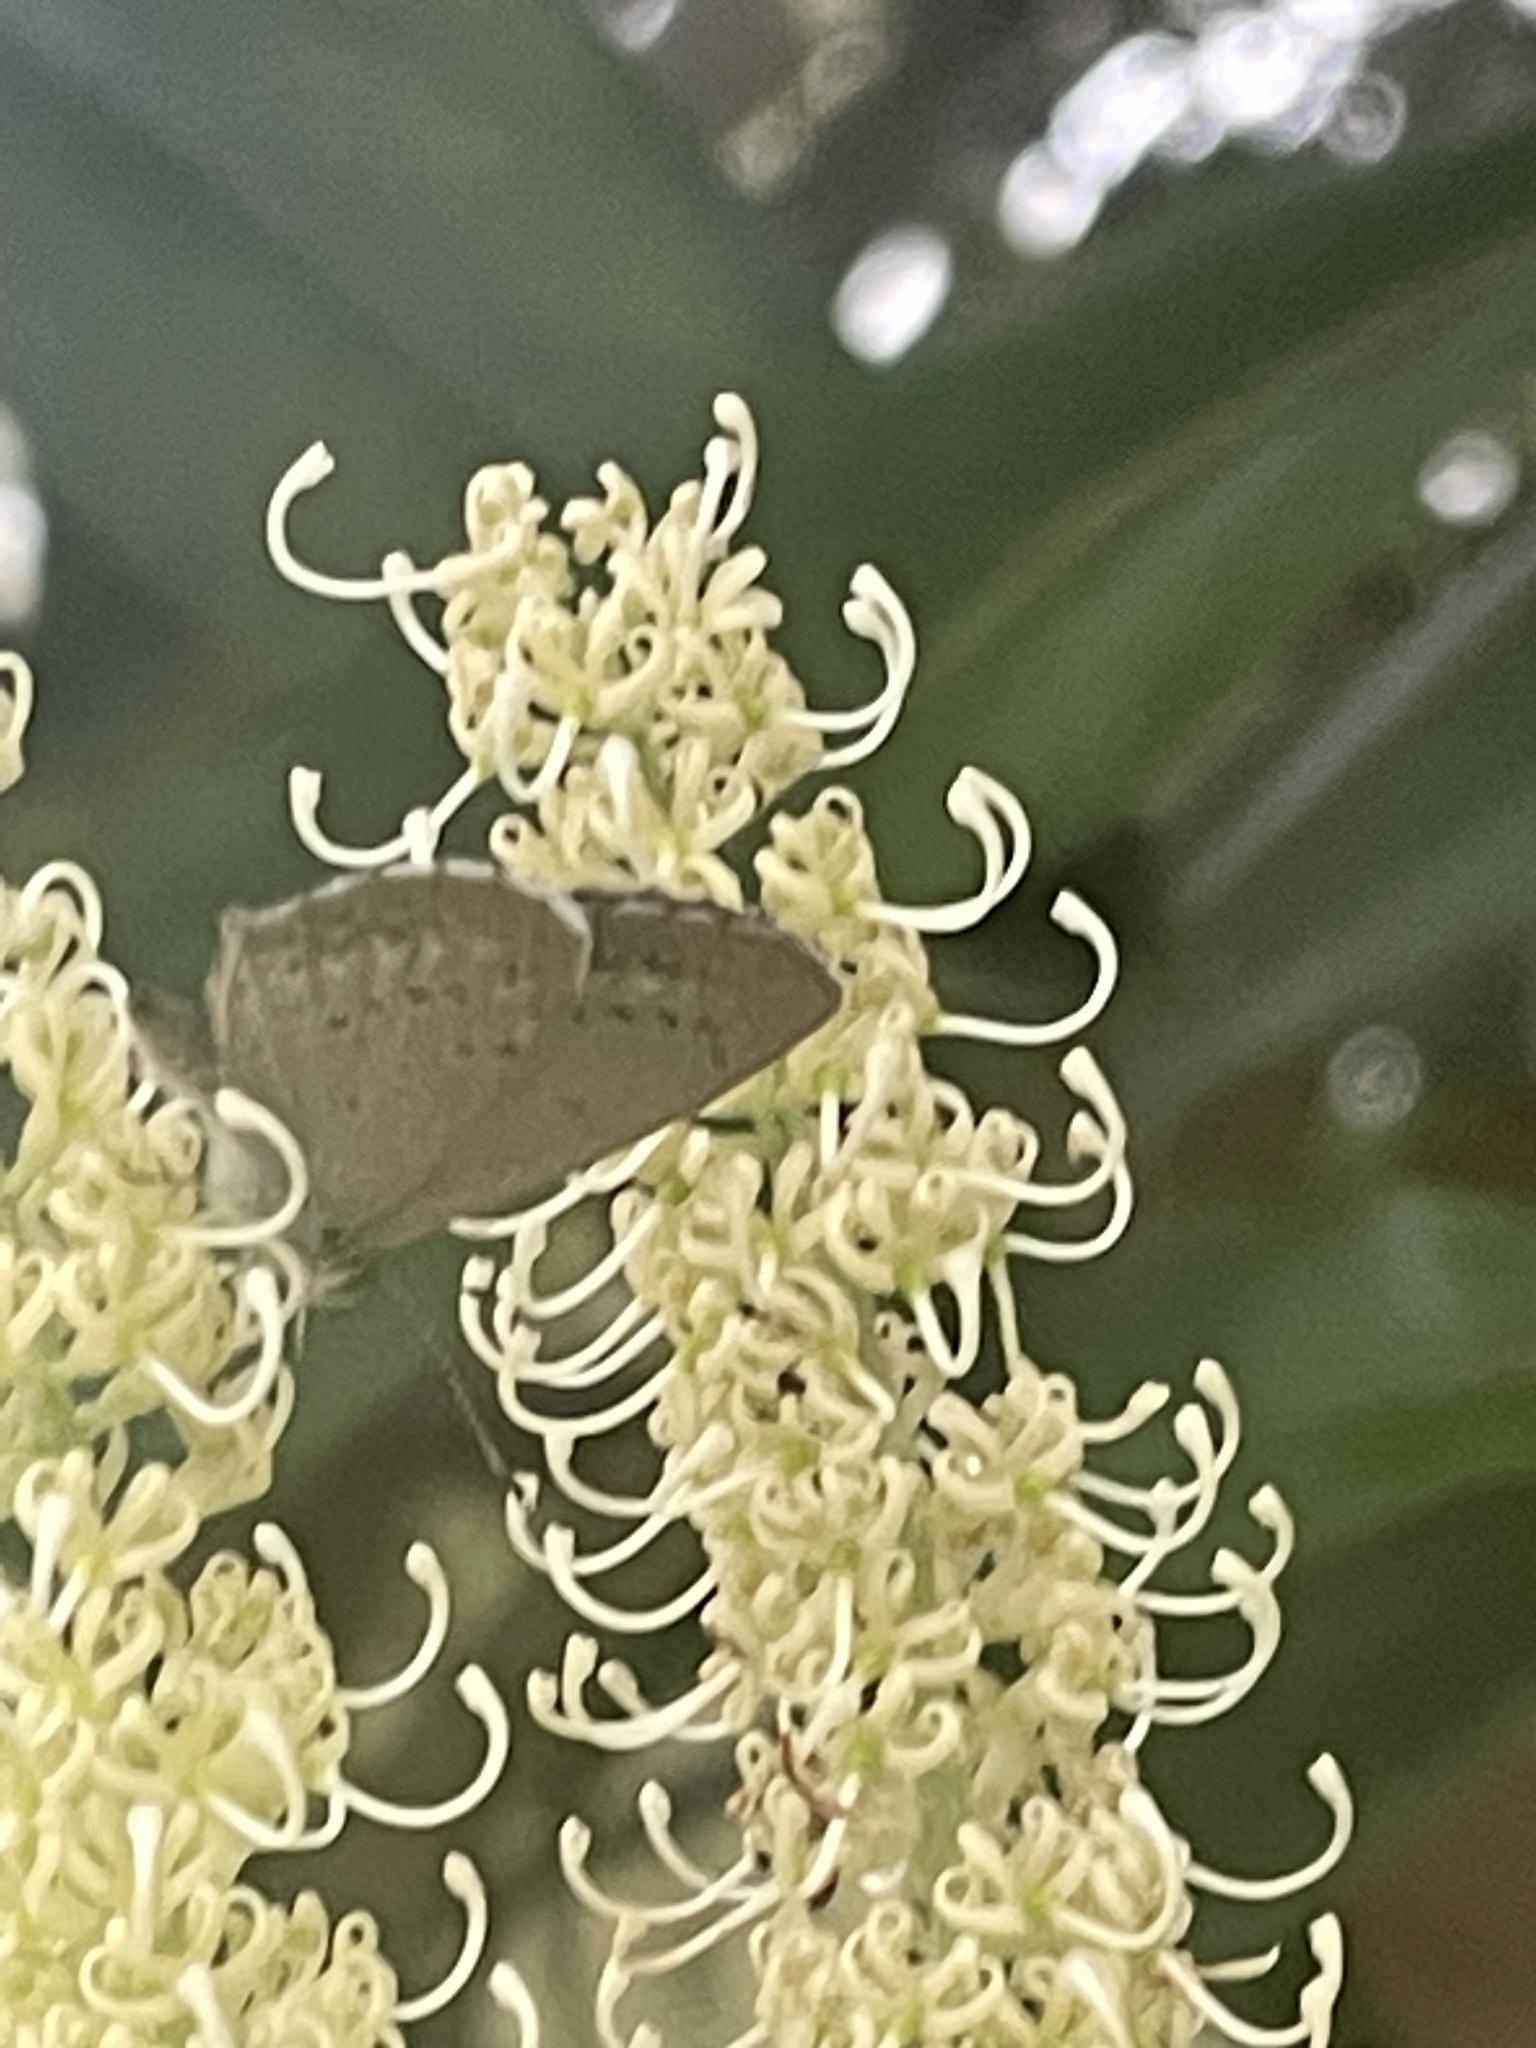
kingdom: Animalia
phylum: Arthropoda
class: Insecta
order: Lepidoptera
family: Lycaenidae
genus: Zizina
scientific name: Zizina otis
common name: Lesser grass blue
